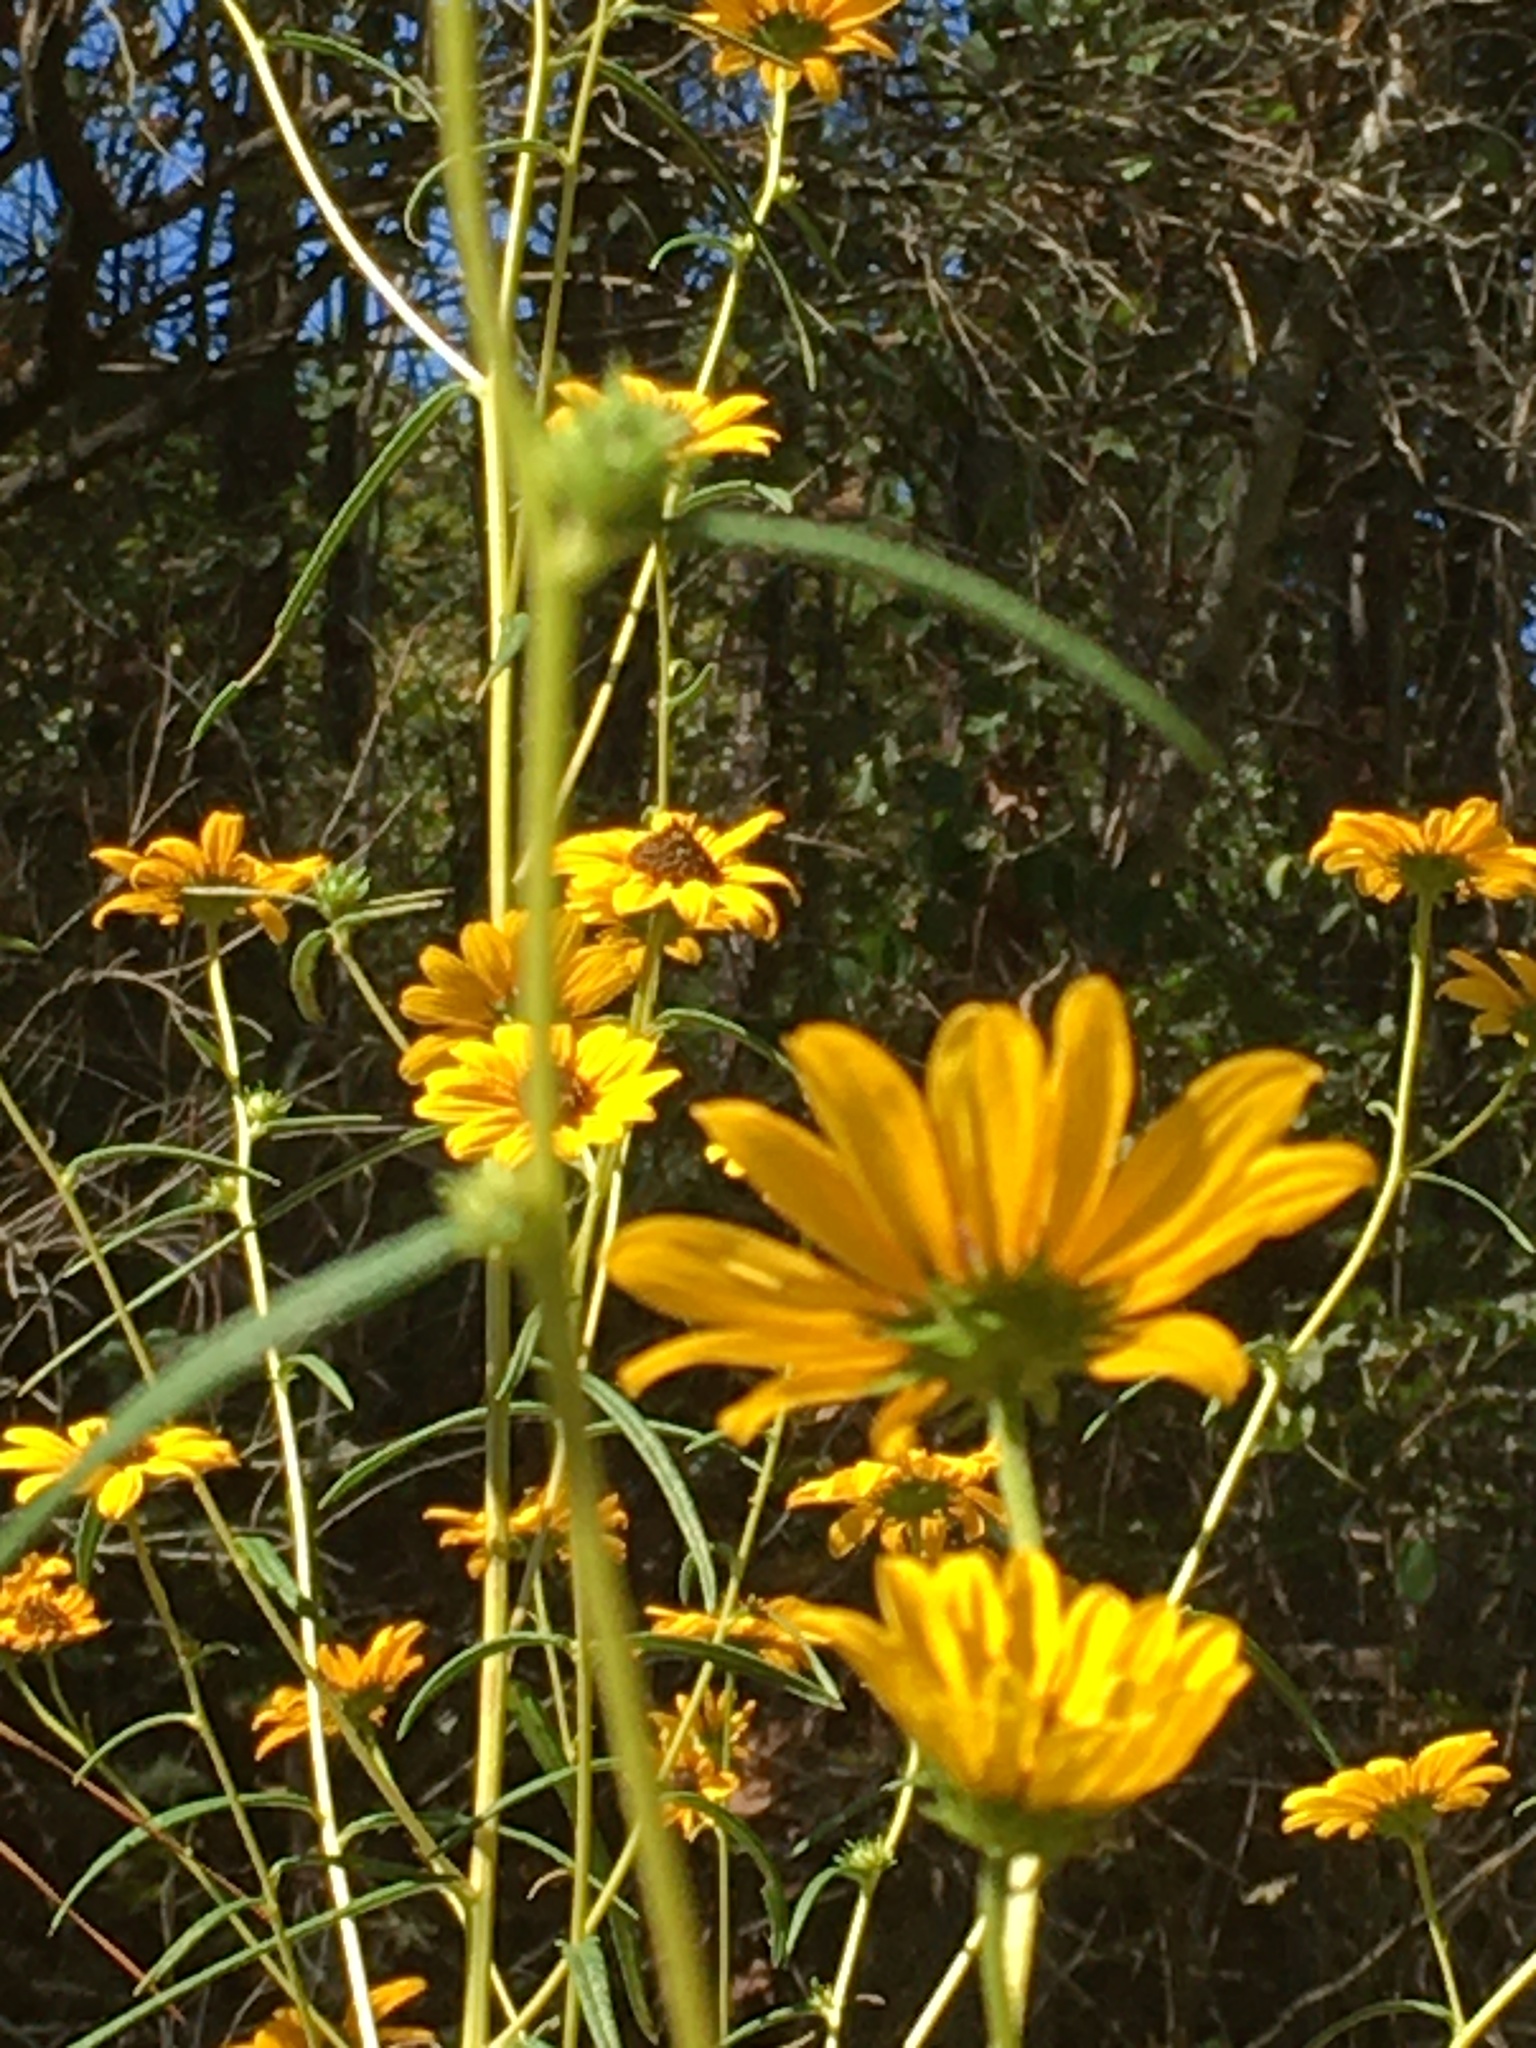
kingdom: Plantae
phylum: Tracheophyta
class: Magnoliopsida
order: Asterales
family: Asteraceae
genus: Helianthus
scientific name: Helianthus angustifolius
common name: Swamp sunflower
